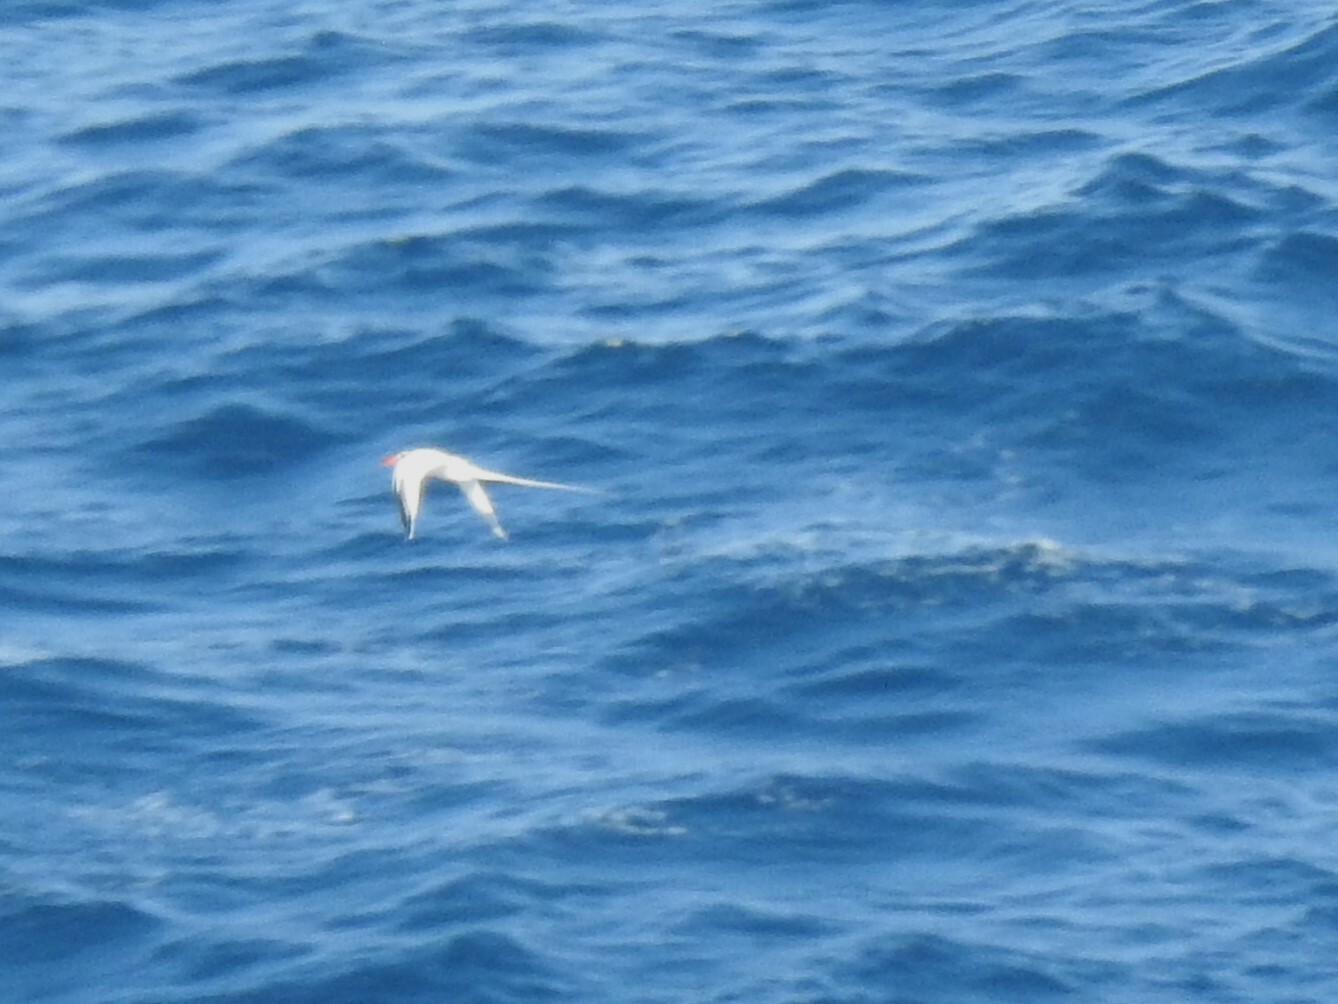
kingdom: Animalia
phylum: Chordata
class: Aves
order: Phaethontiformes
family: Phaethontidae
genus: Phaethon
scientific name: Phaethon aethereus
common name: Red-billed tropicbird
